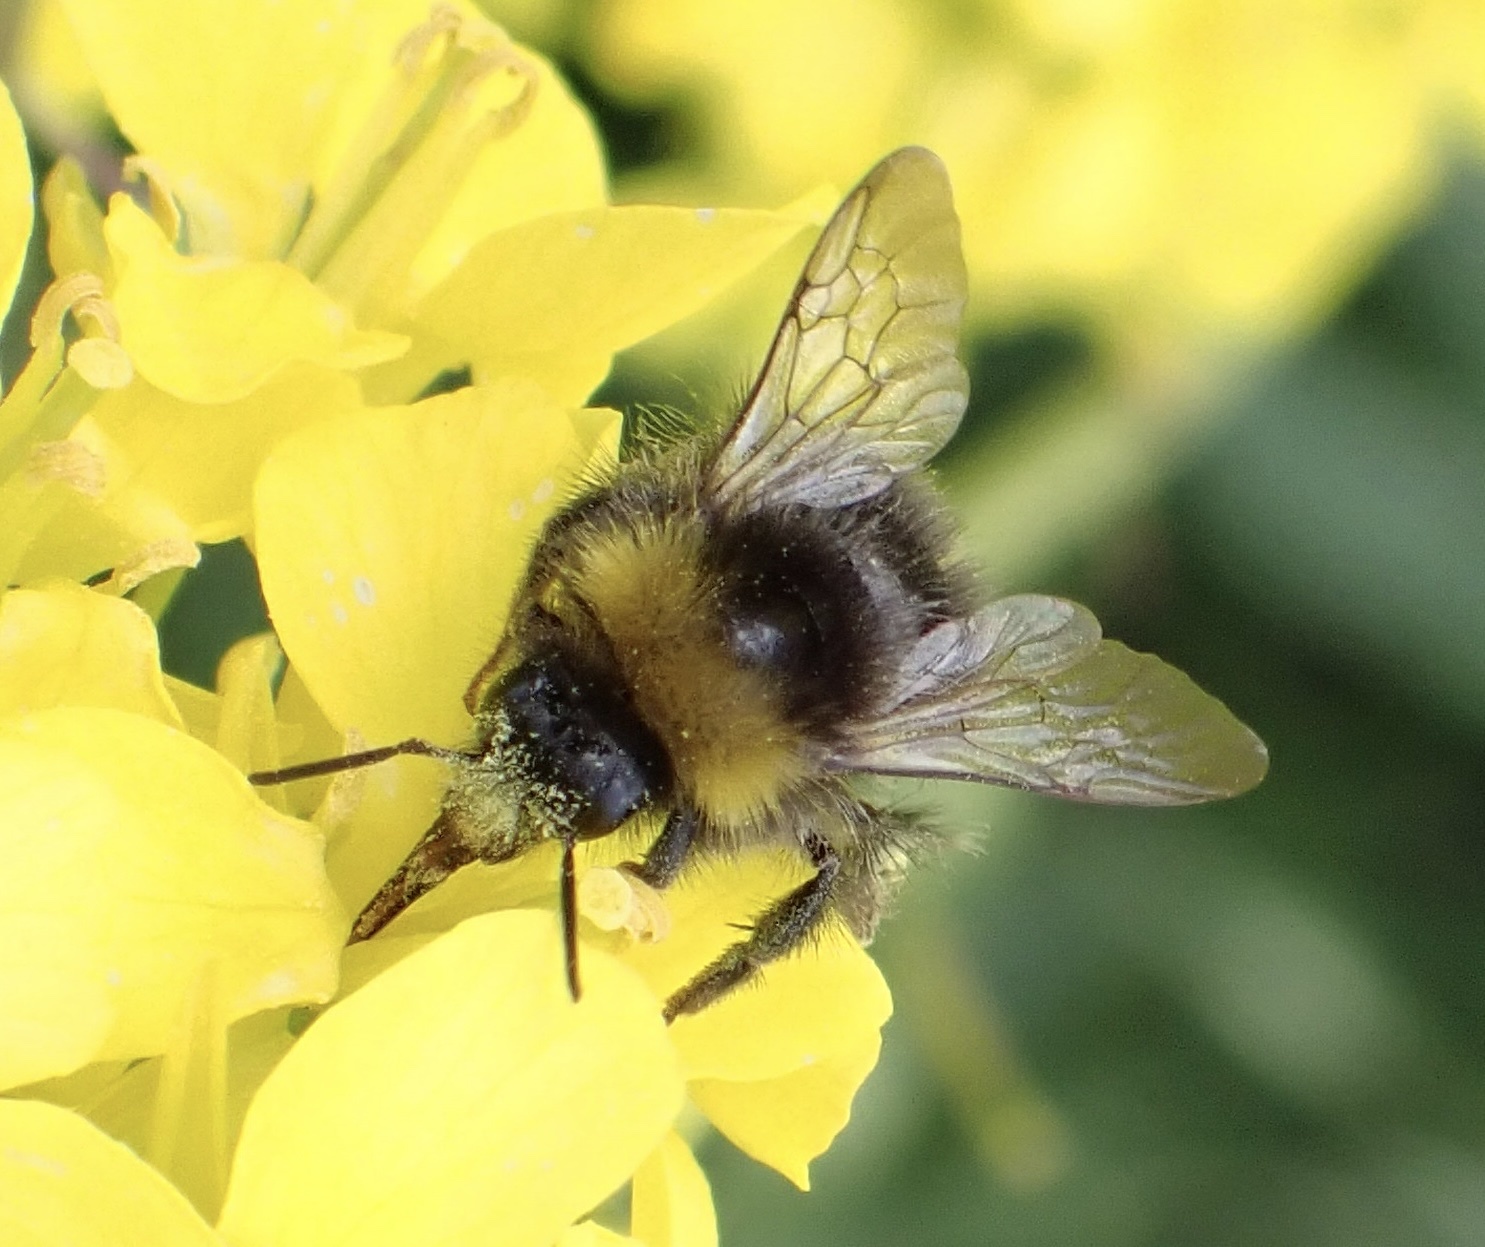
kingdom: Animalia
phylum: Arthropoda
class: Insecta
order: Hymenoptera
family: Apidae
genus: Bombus
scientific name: Bombus pratorum
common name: Early humble-bee
